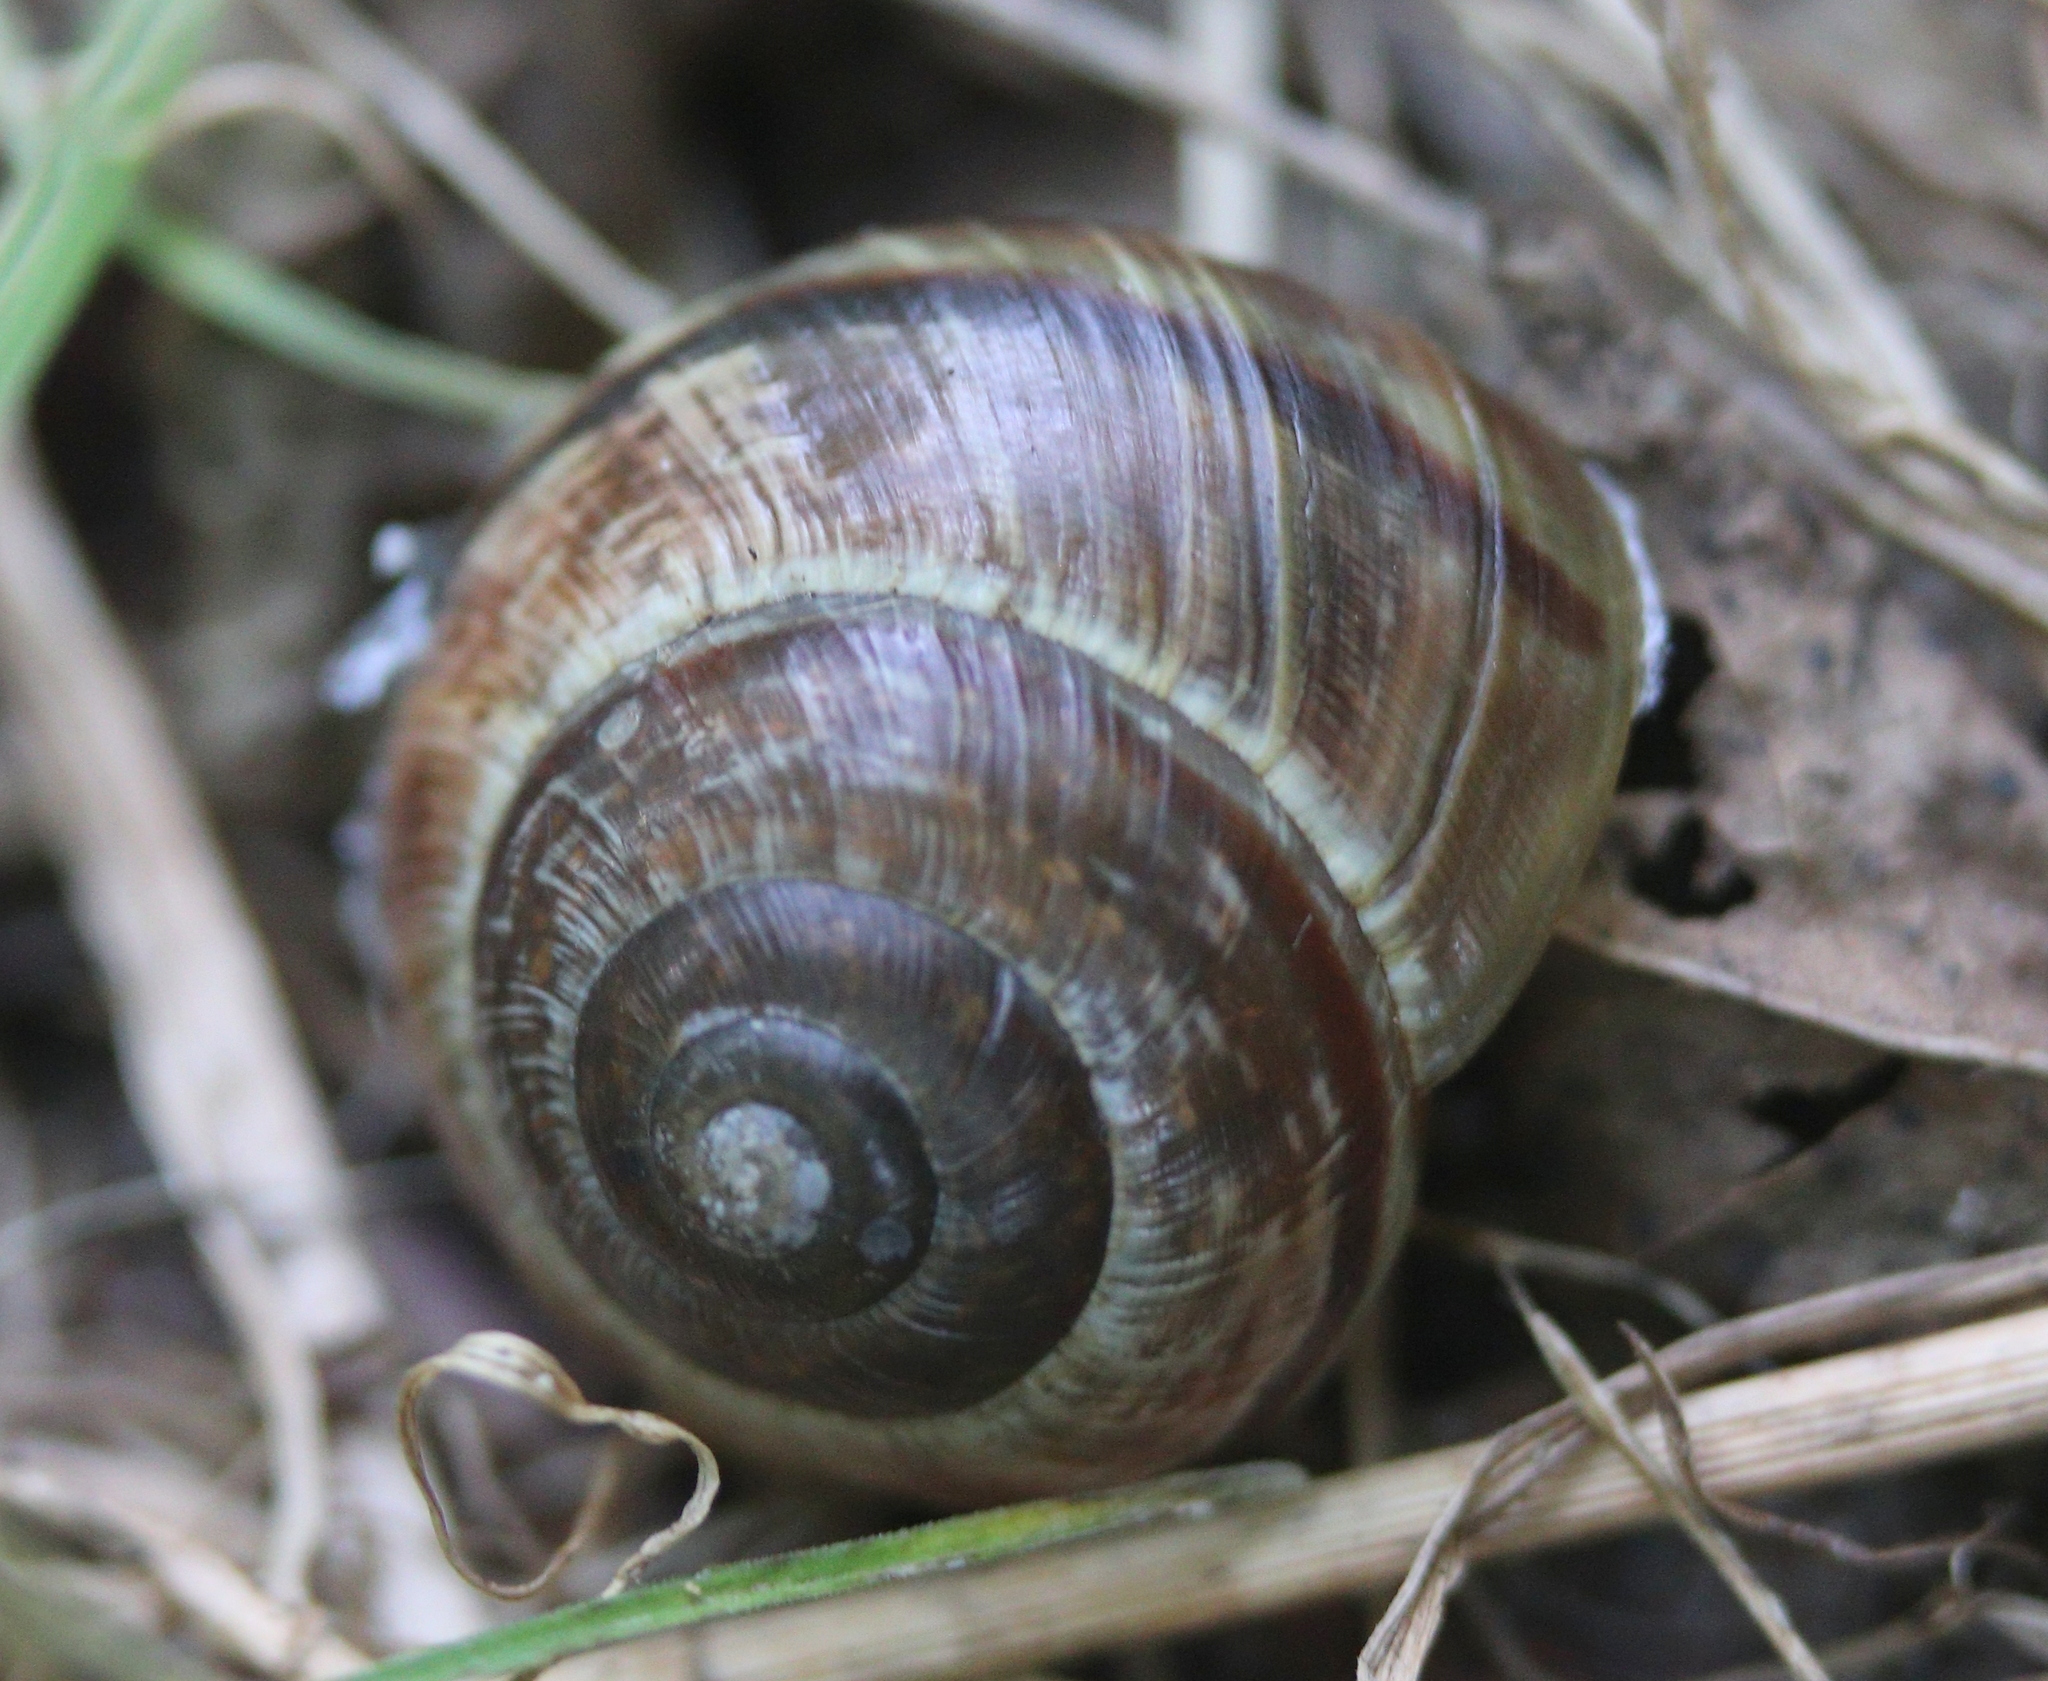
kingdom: Animalia
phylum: Mollusca
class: Gastropoda
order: Stylommatophora
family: Helicidae
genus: Arianta
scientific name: Arianta arbustorum
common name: Copse snail
